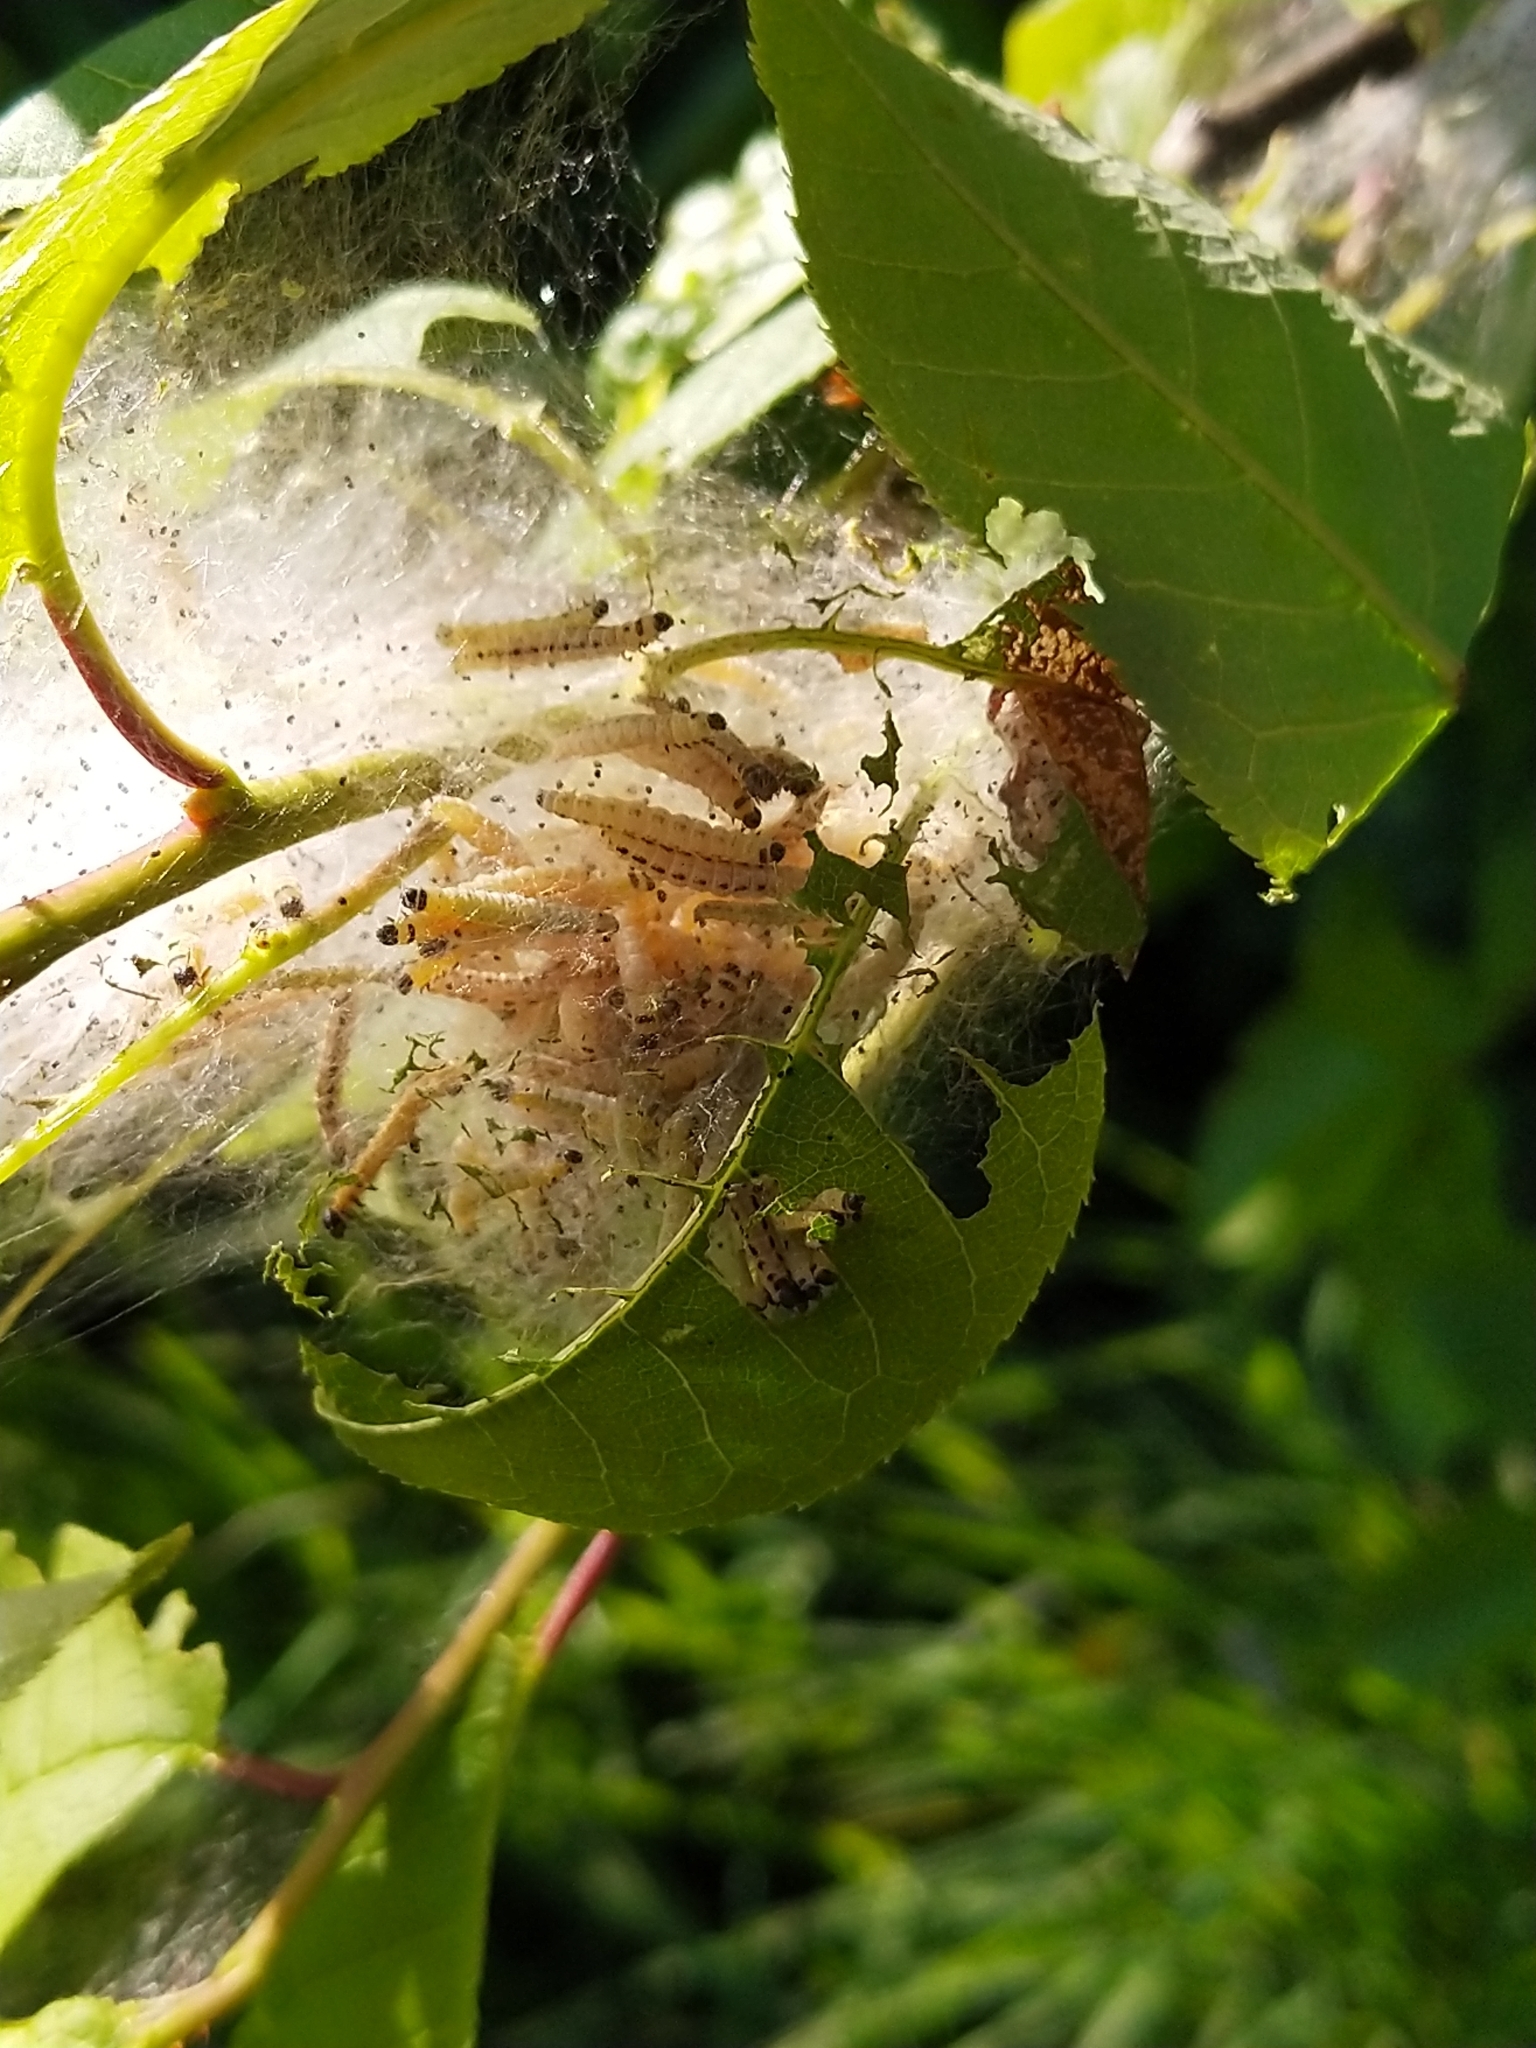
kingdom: Animalia
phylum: Arthropoda
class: Insecta
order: Lepidoptera
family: Yponomeutidae
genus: Yponomeuta
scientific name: Yponomeuta evonymella
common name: Bird-cherry ermine
